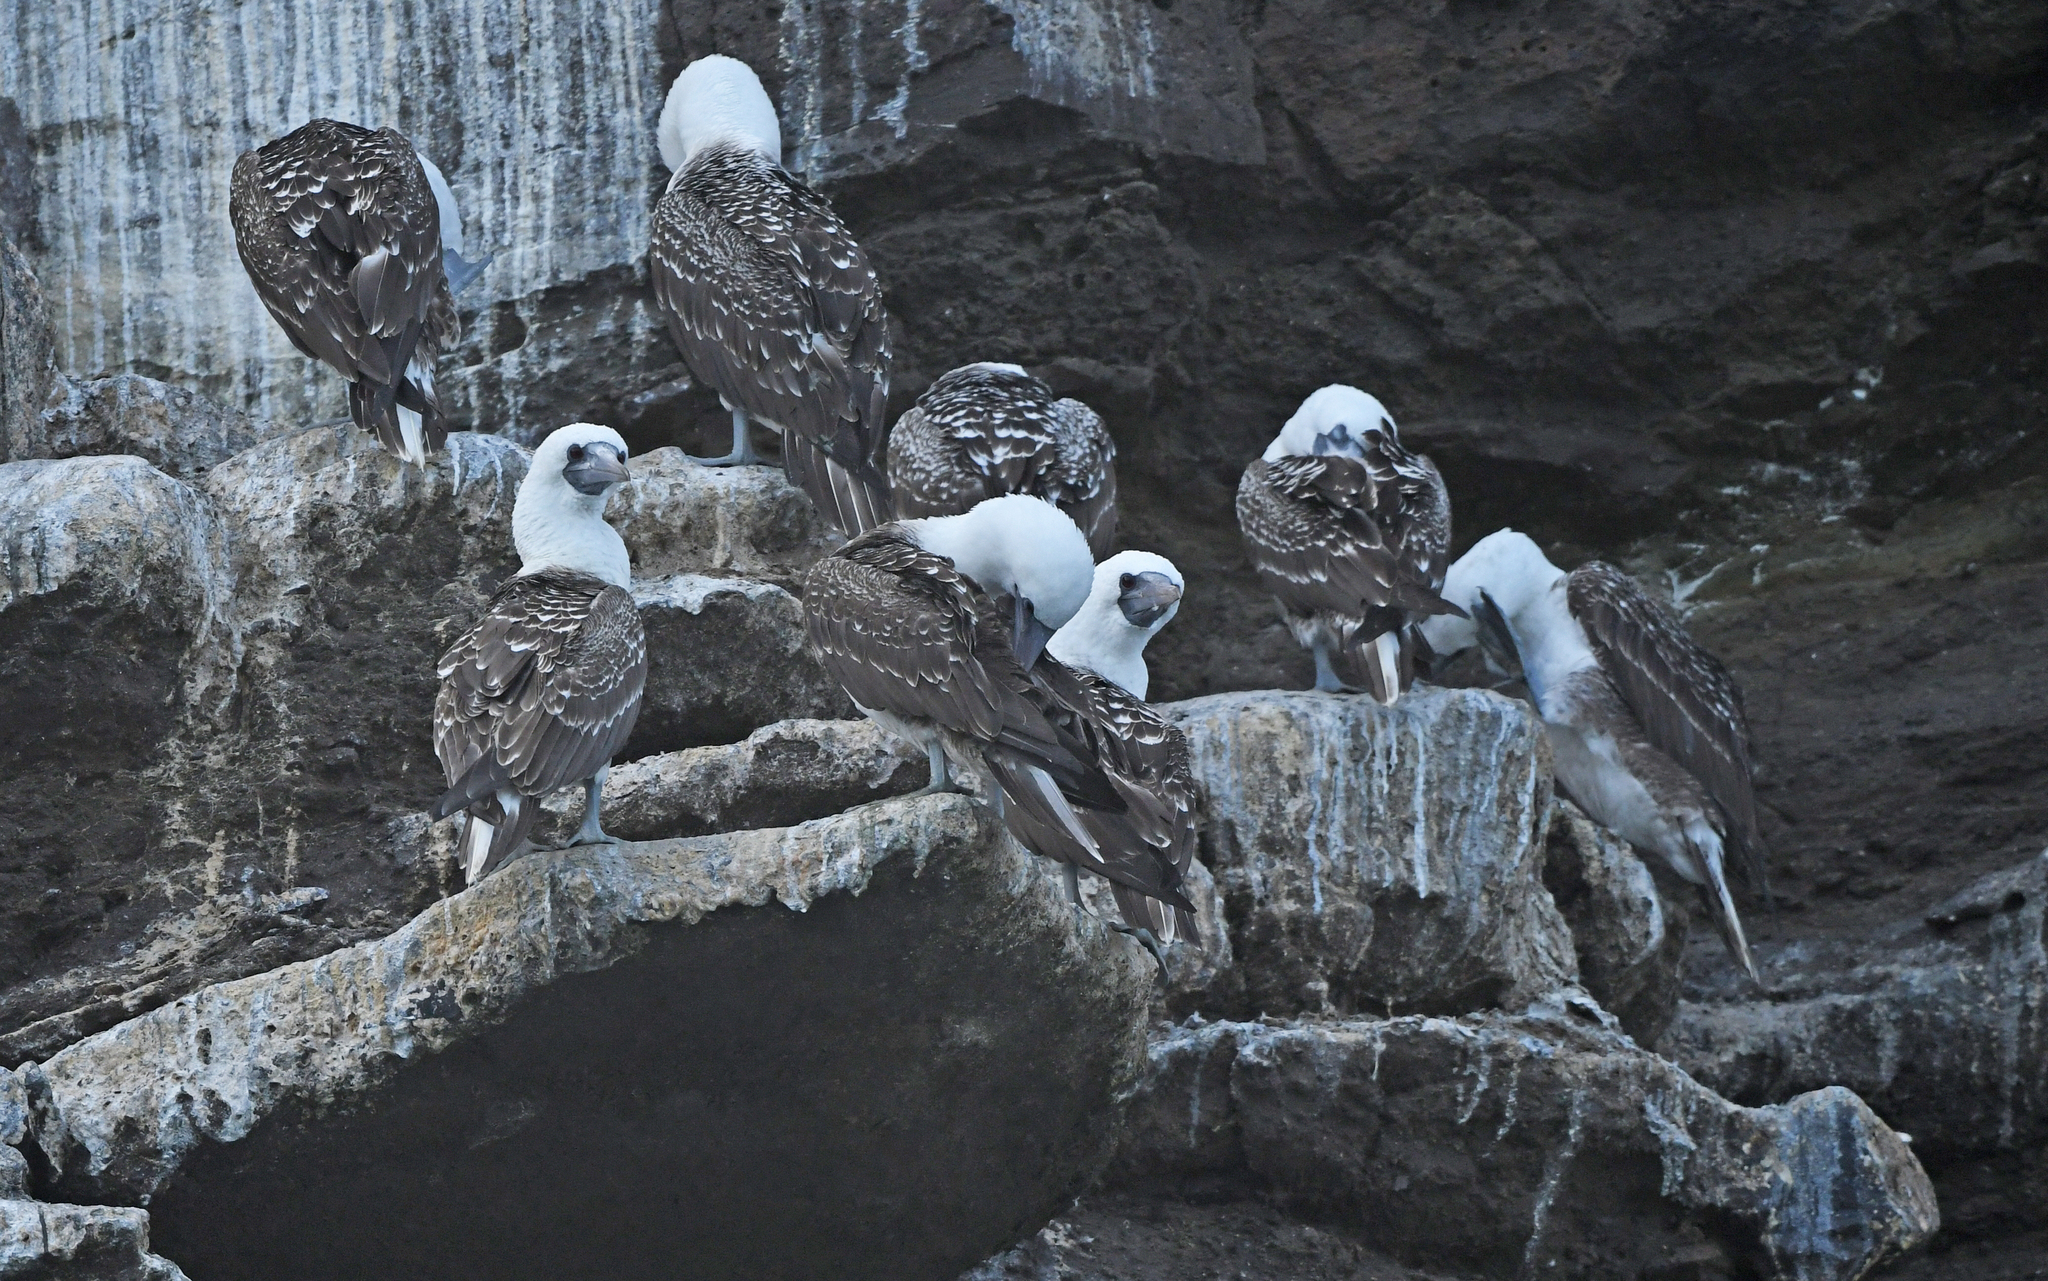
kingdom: Animalia
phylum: Chordata
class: Aves
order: Suliformes
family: Sulidae
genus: Sula
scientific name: Sula variegata
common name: Peruvian booby
